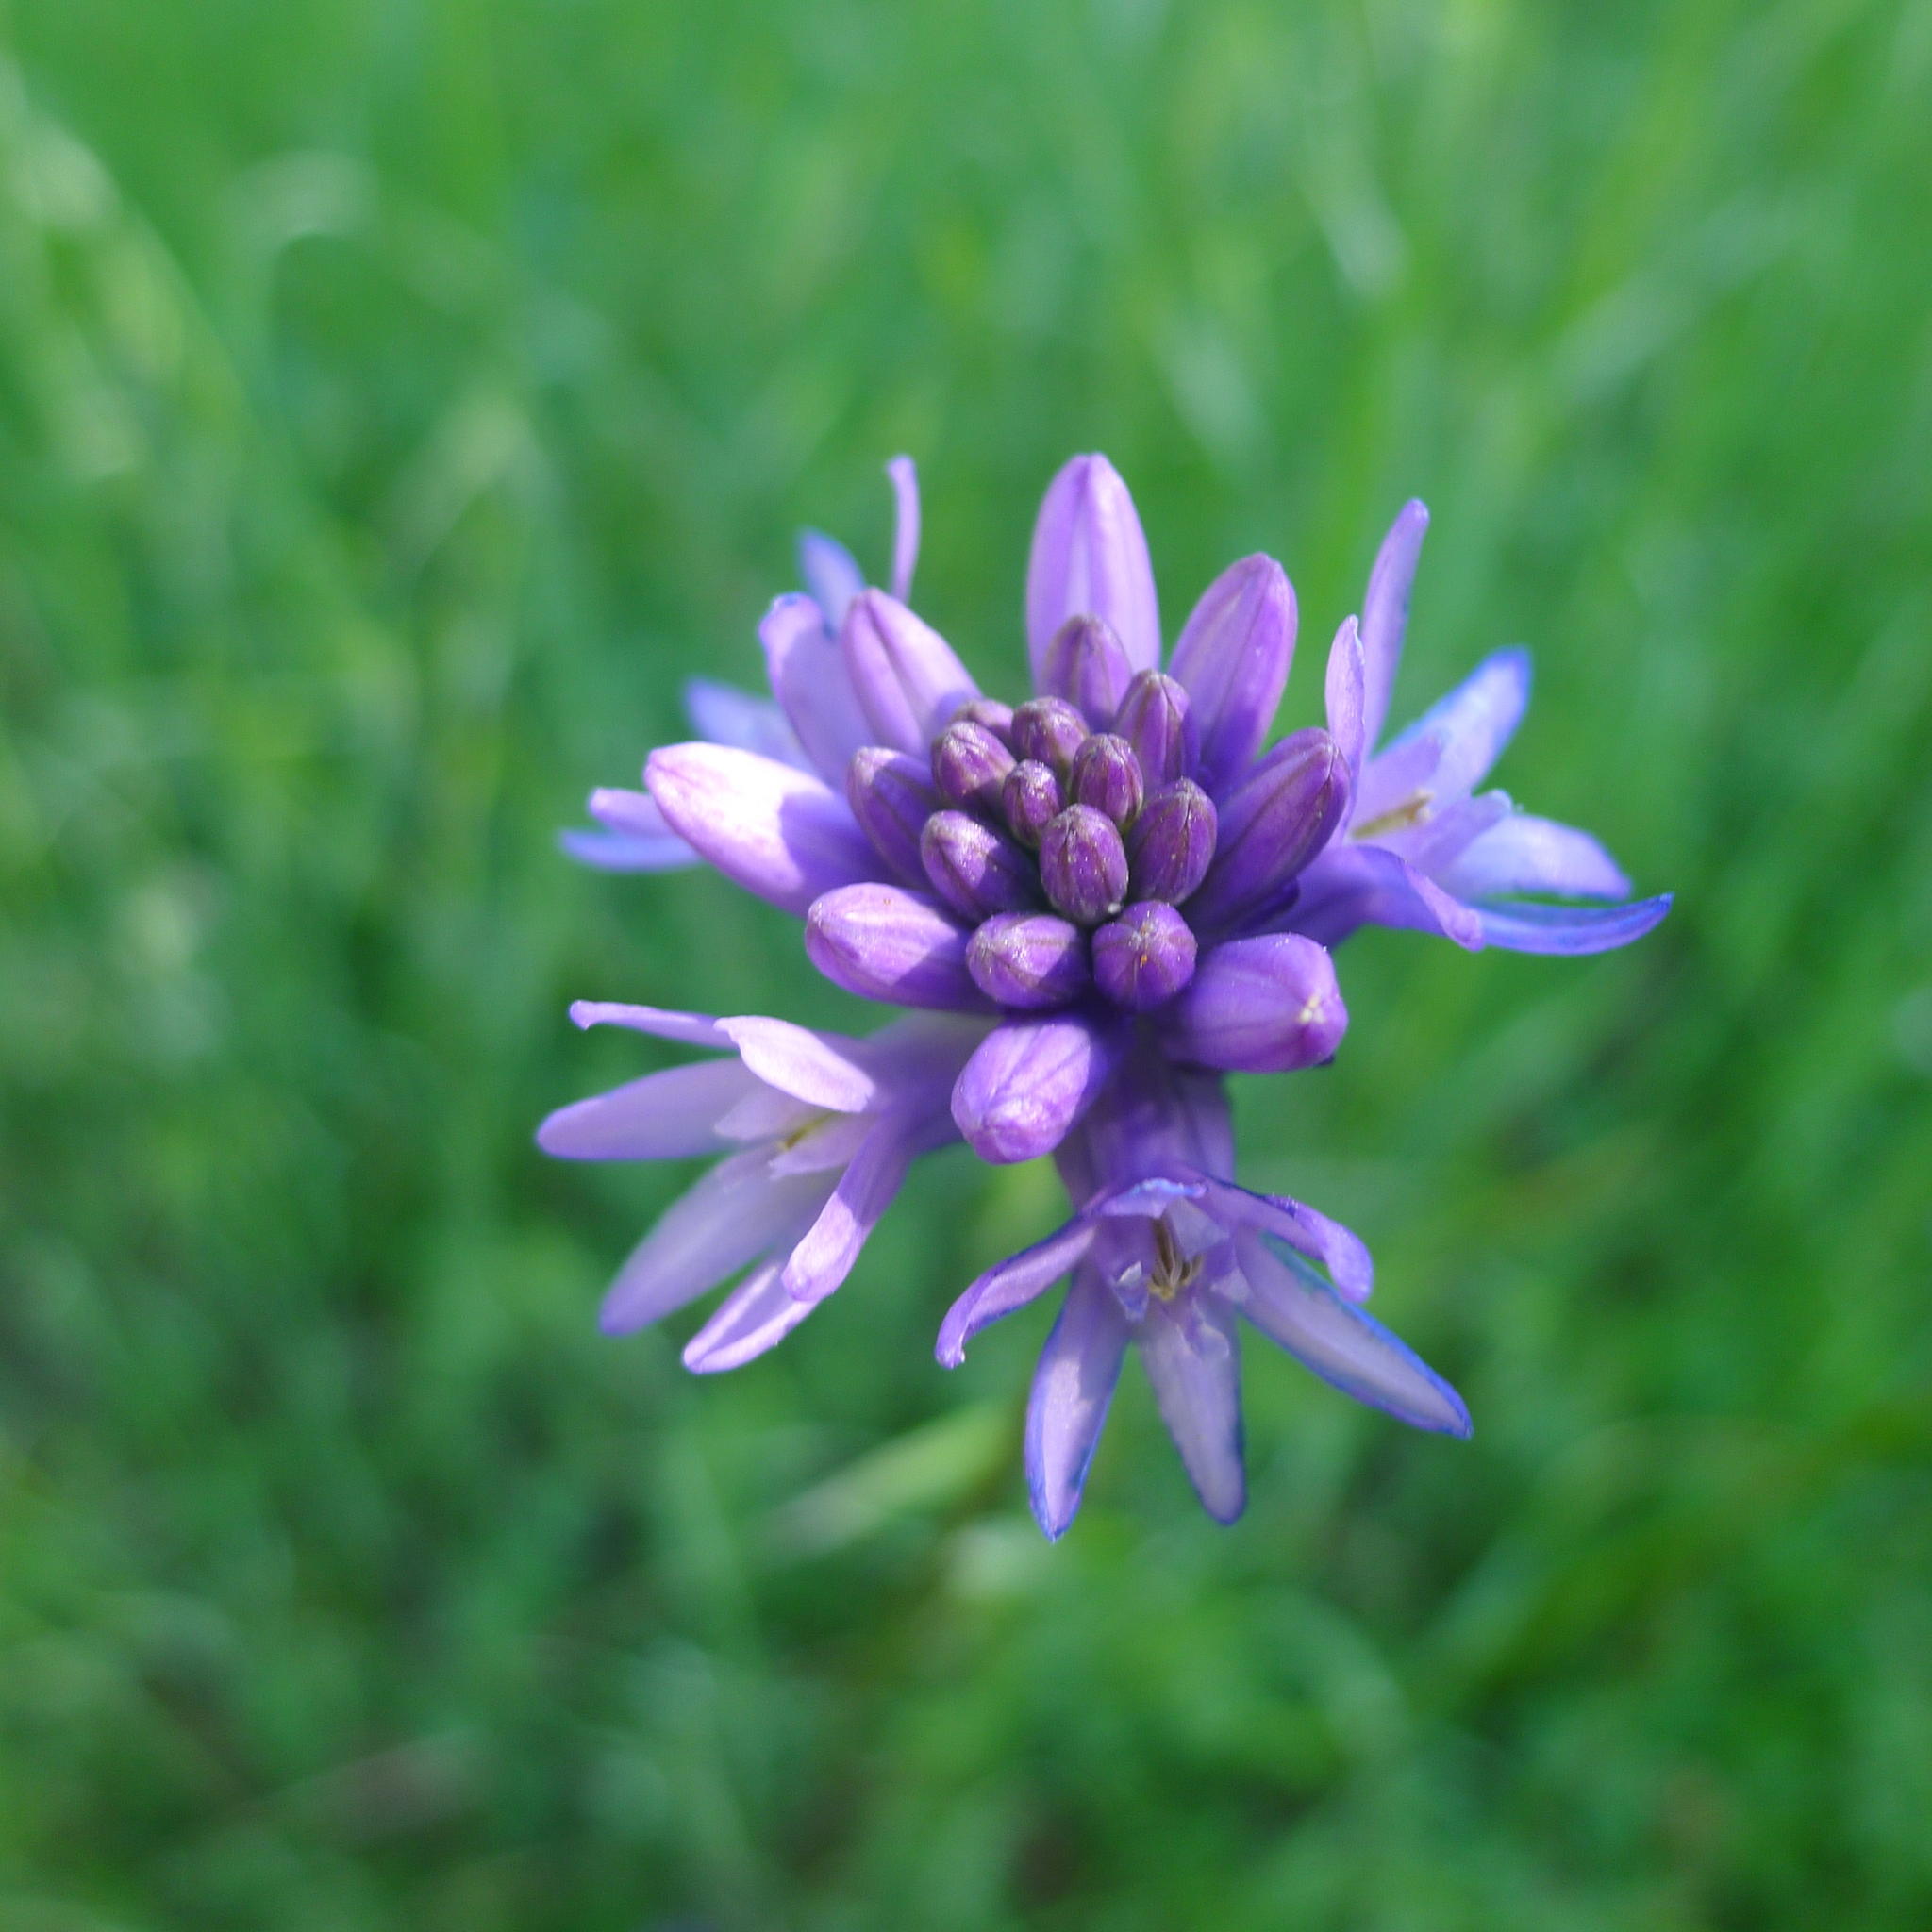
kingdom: Plantae
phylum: Tracheophyta
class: Liliopsida
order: Asparagales
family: Asparagaceae
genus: Dichelostemma
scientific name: Dichelostemma congestum
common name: Fork-tooth ookow
